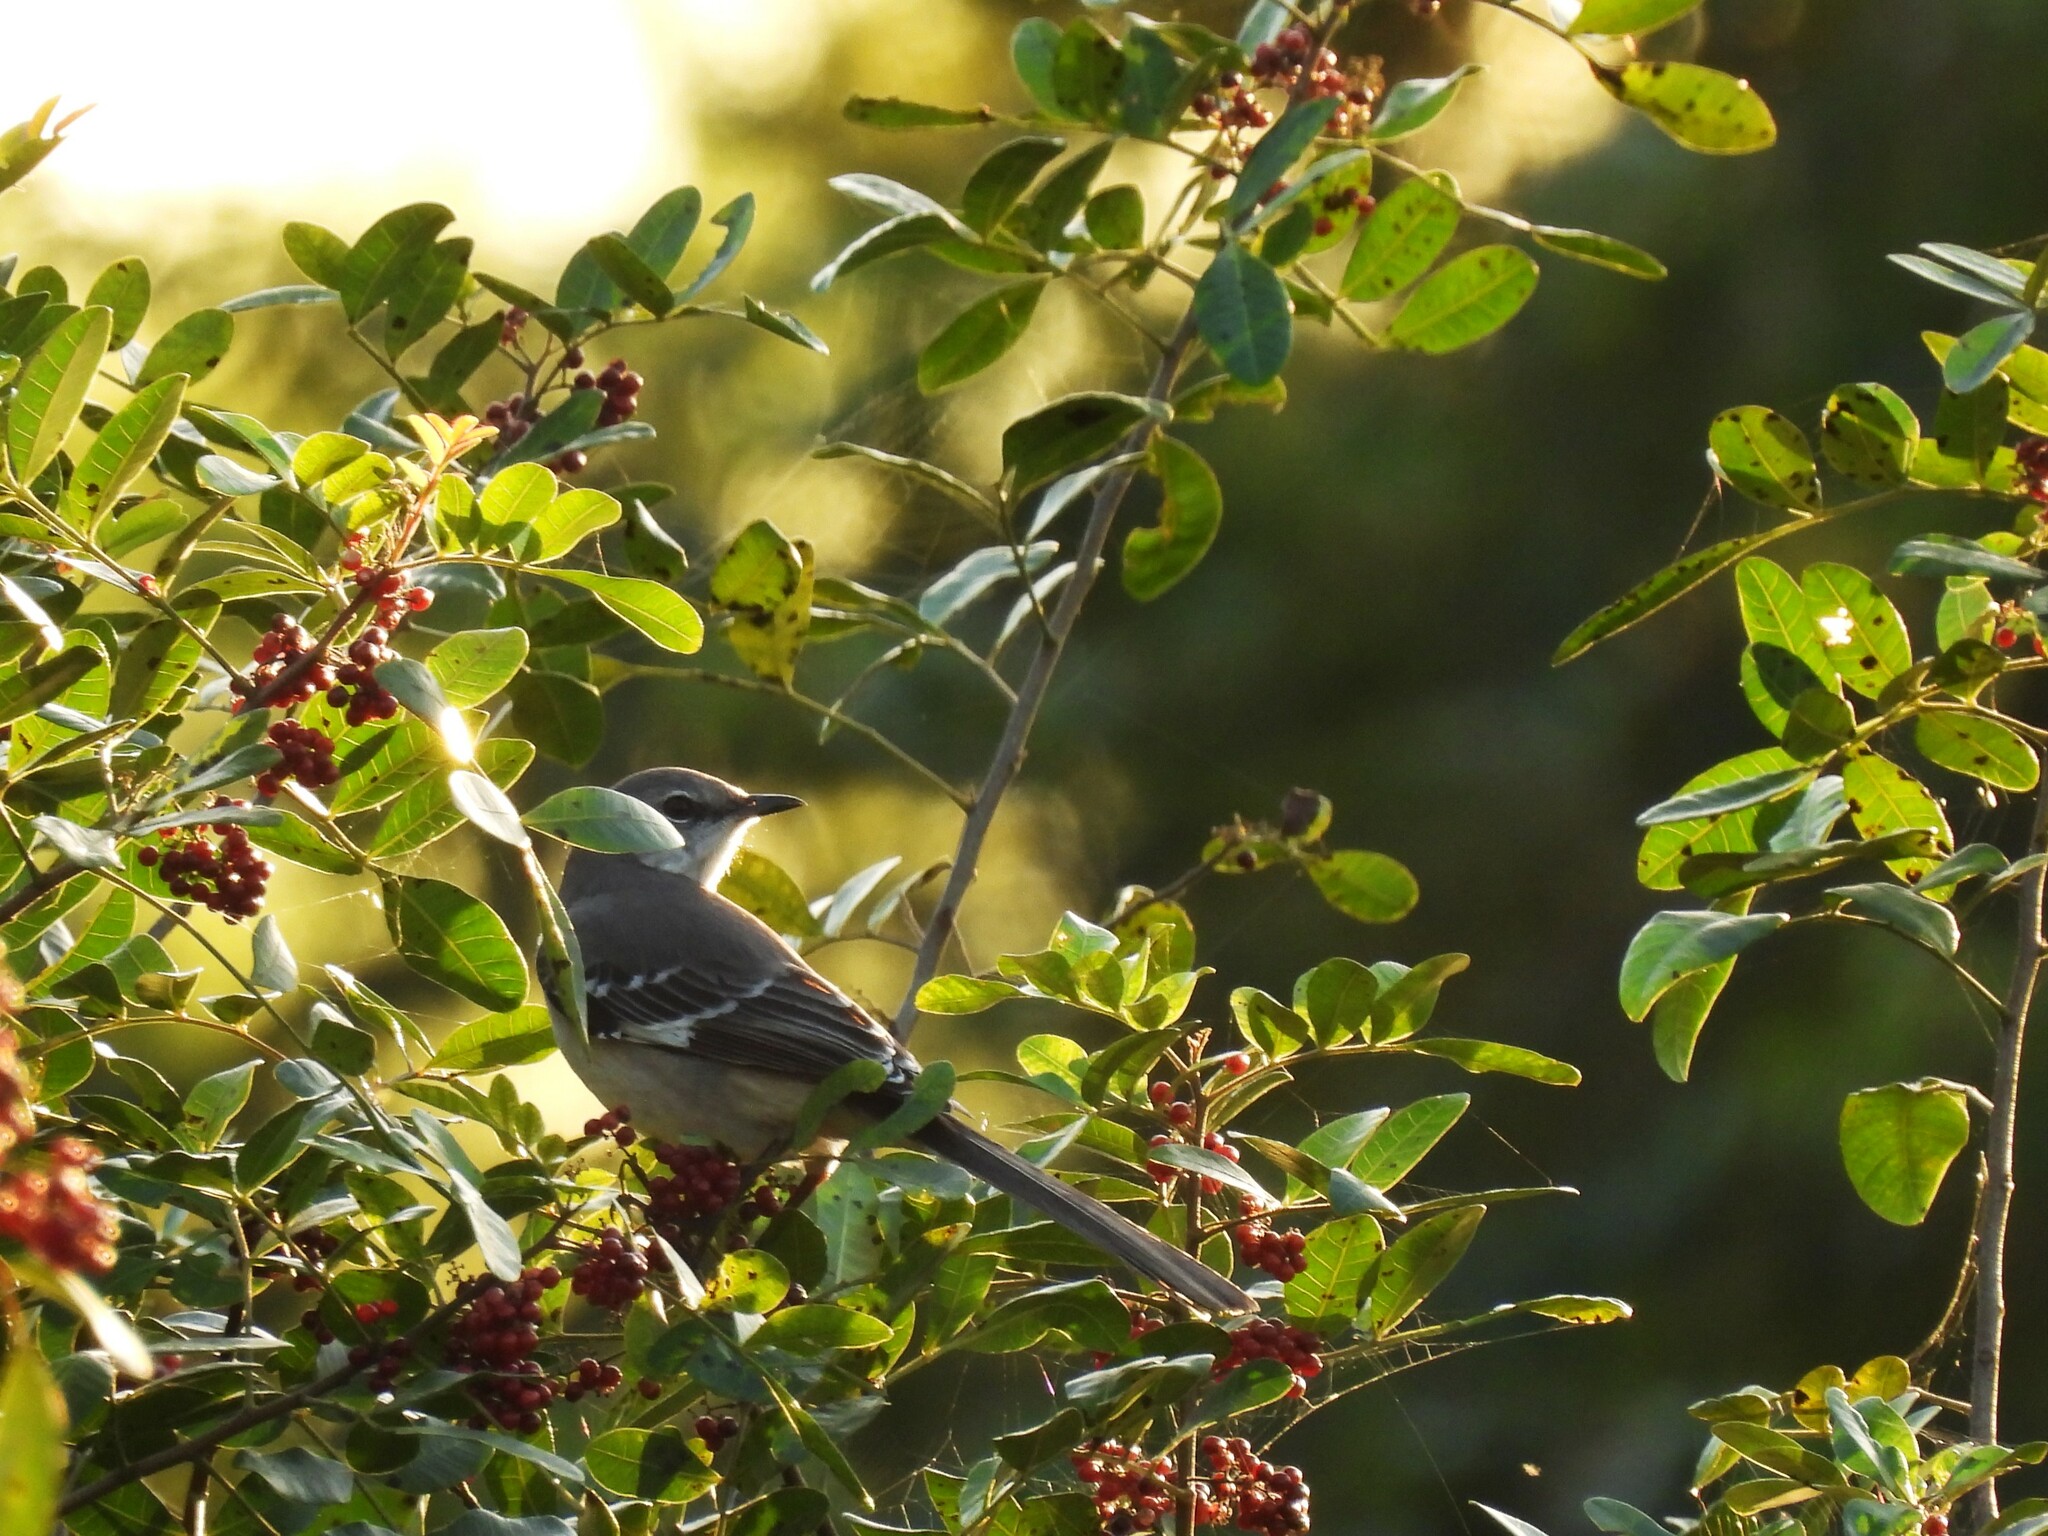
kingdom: Animalia
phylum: Chordata
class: Aves
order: Passeriformes
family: Mimidae
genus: Mimus
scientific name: Mimus polyglottos
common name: Northern mockingbird
